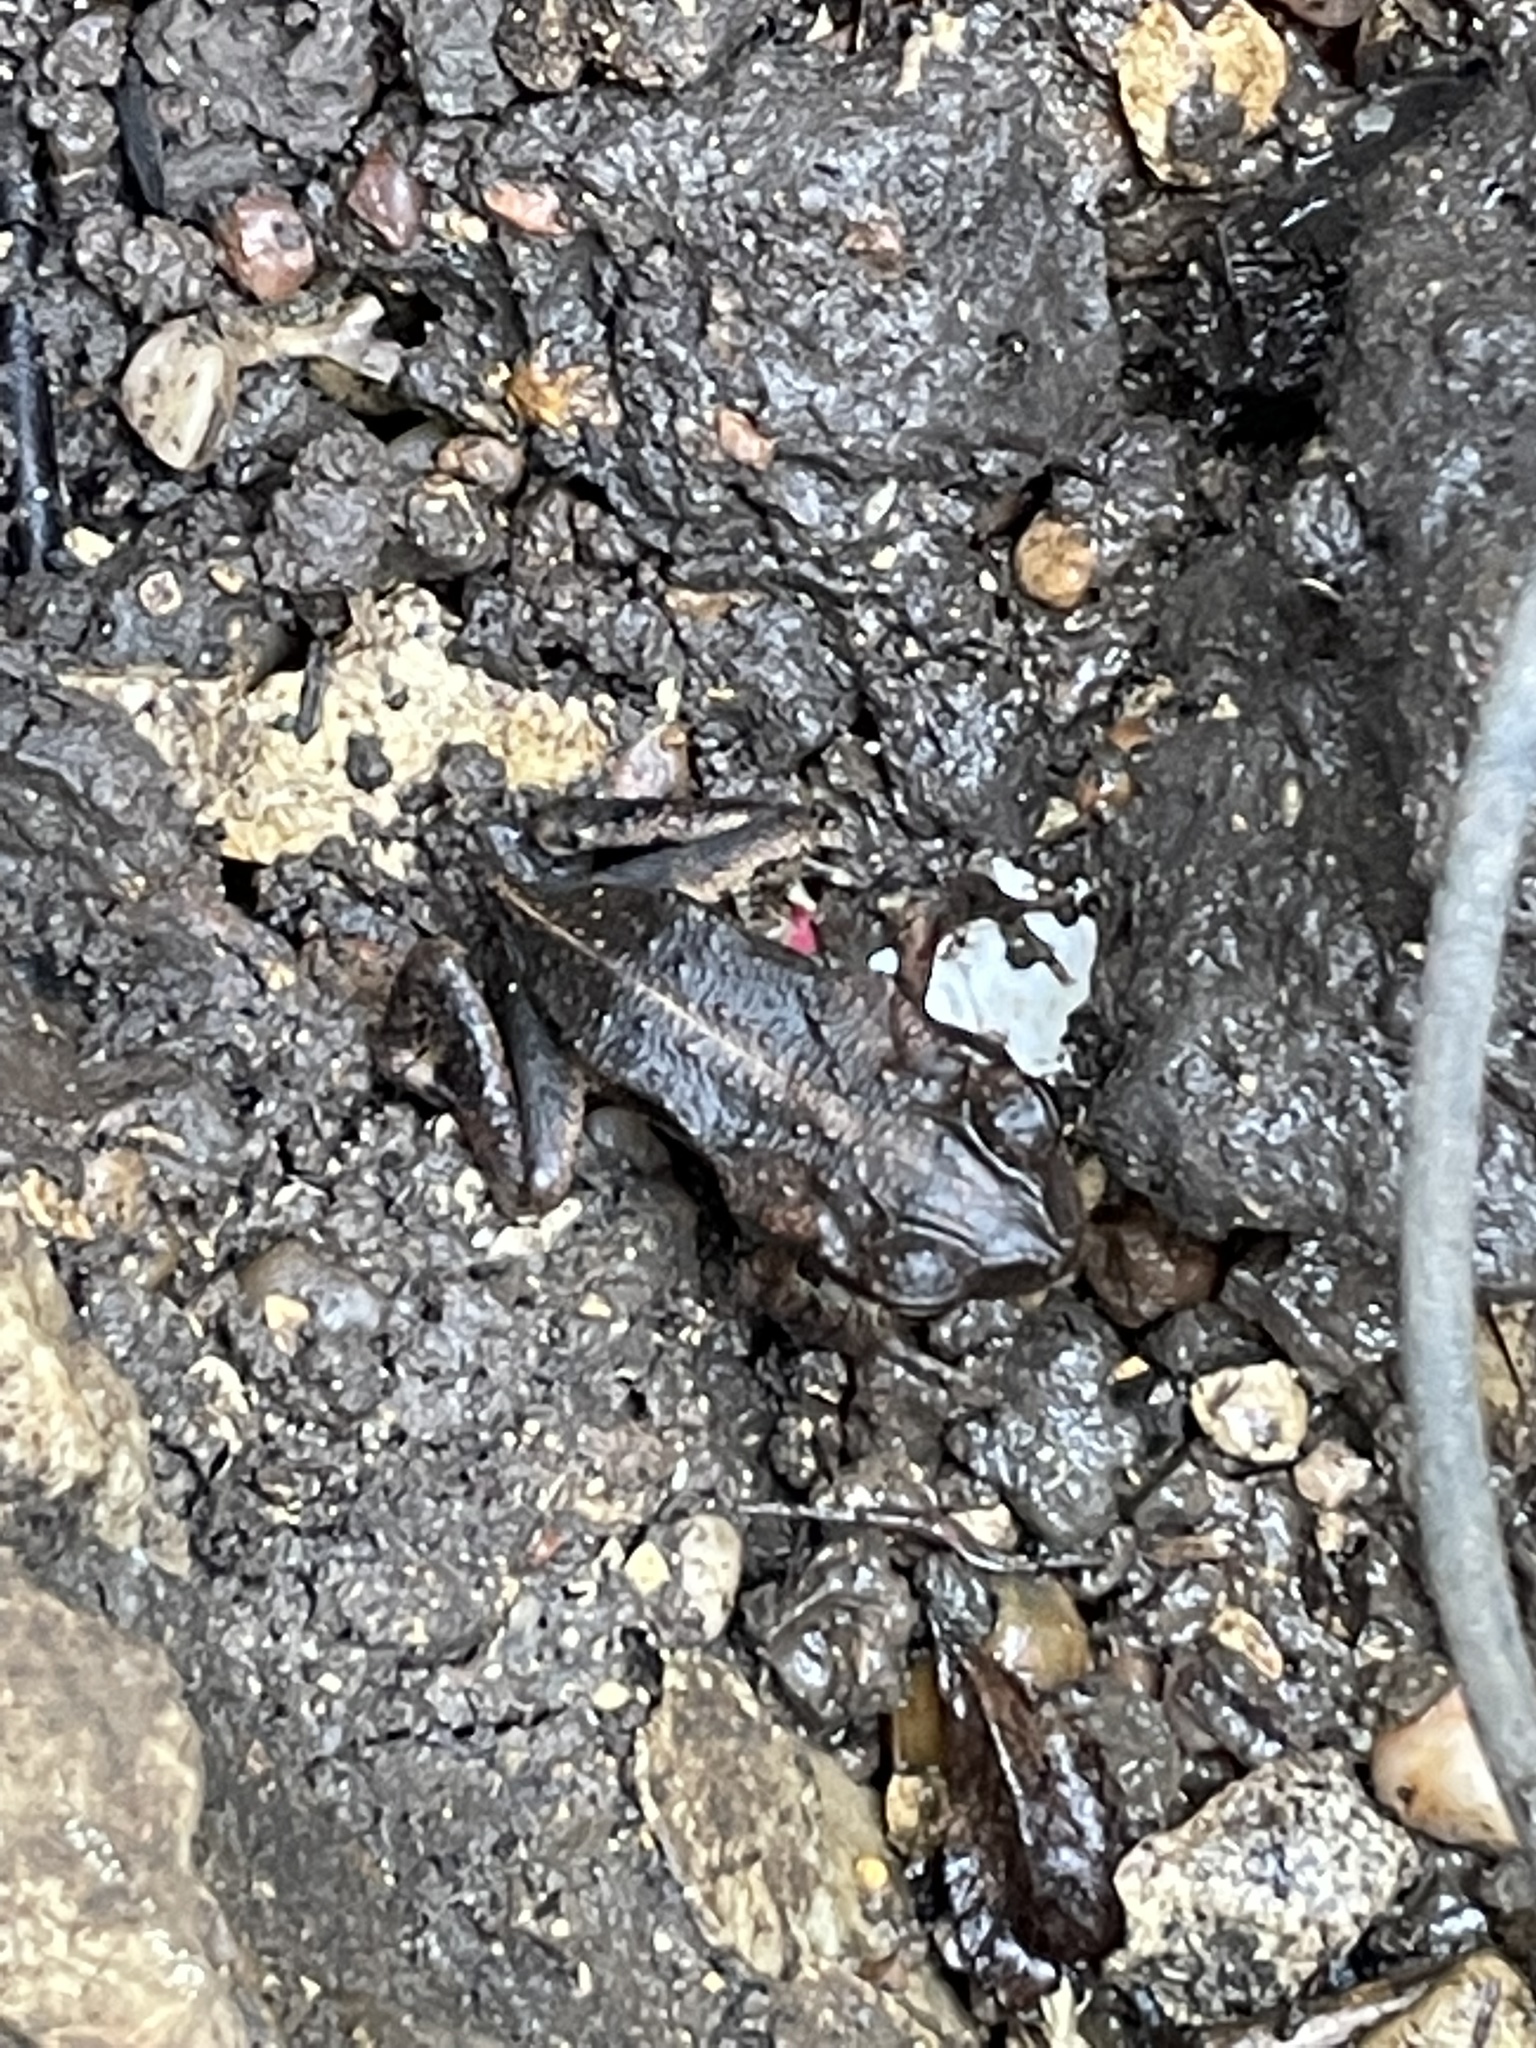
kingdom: Animalia
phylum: Chordata
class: Amphibia
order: Anura
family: Bufonidae
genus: Incilius
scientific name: Incilius nebulifer
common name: Gulf coast toad
